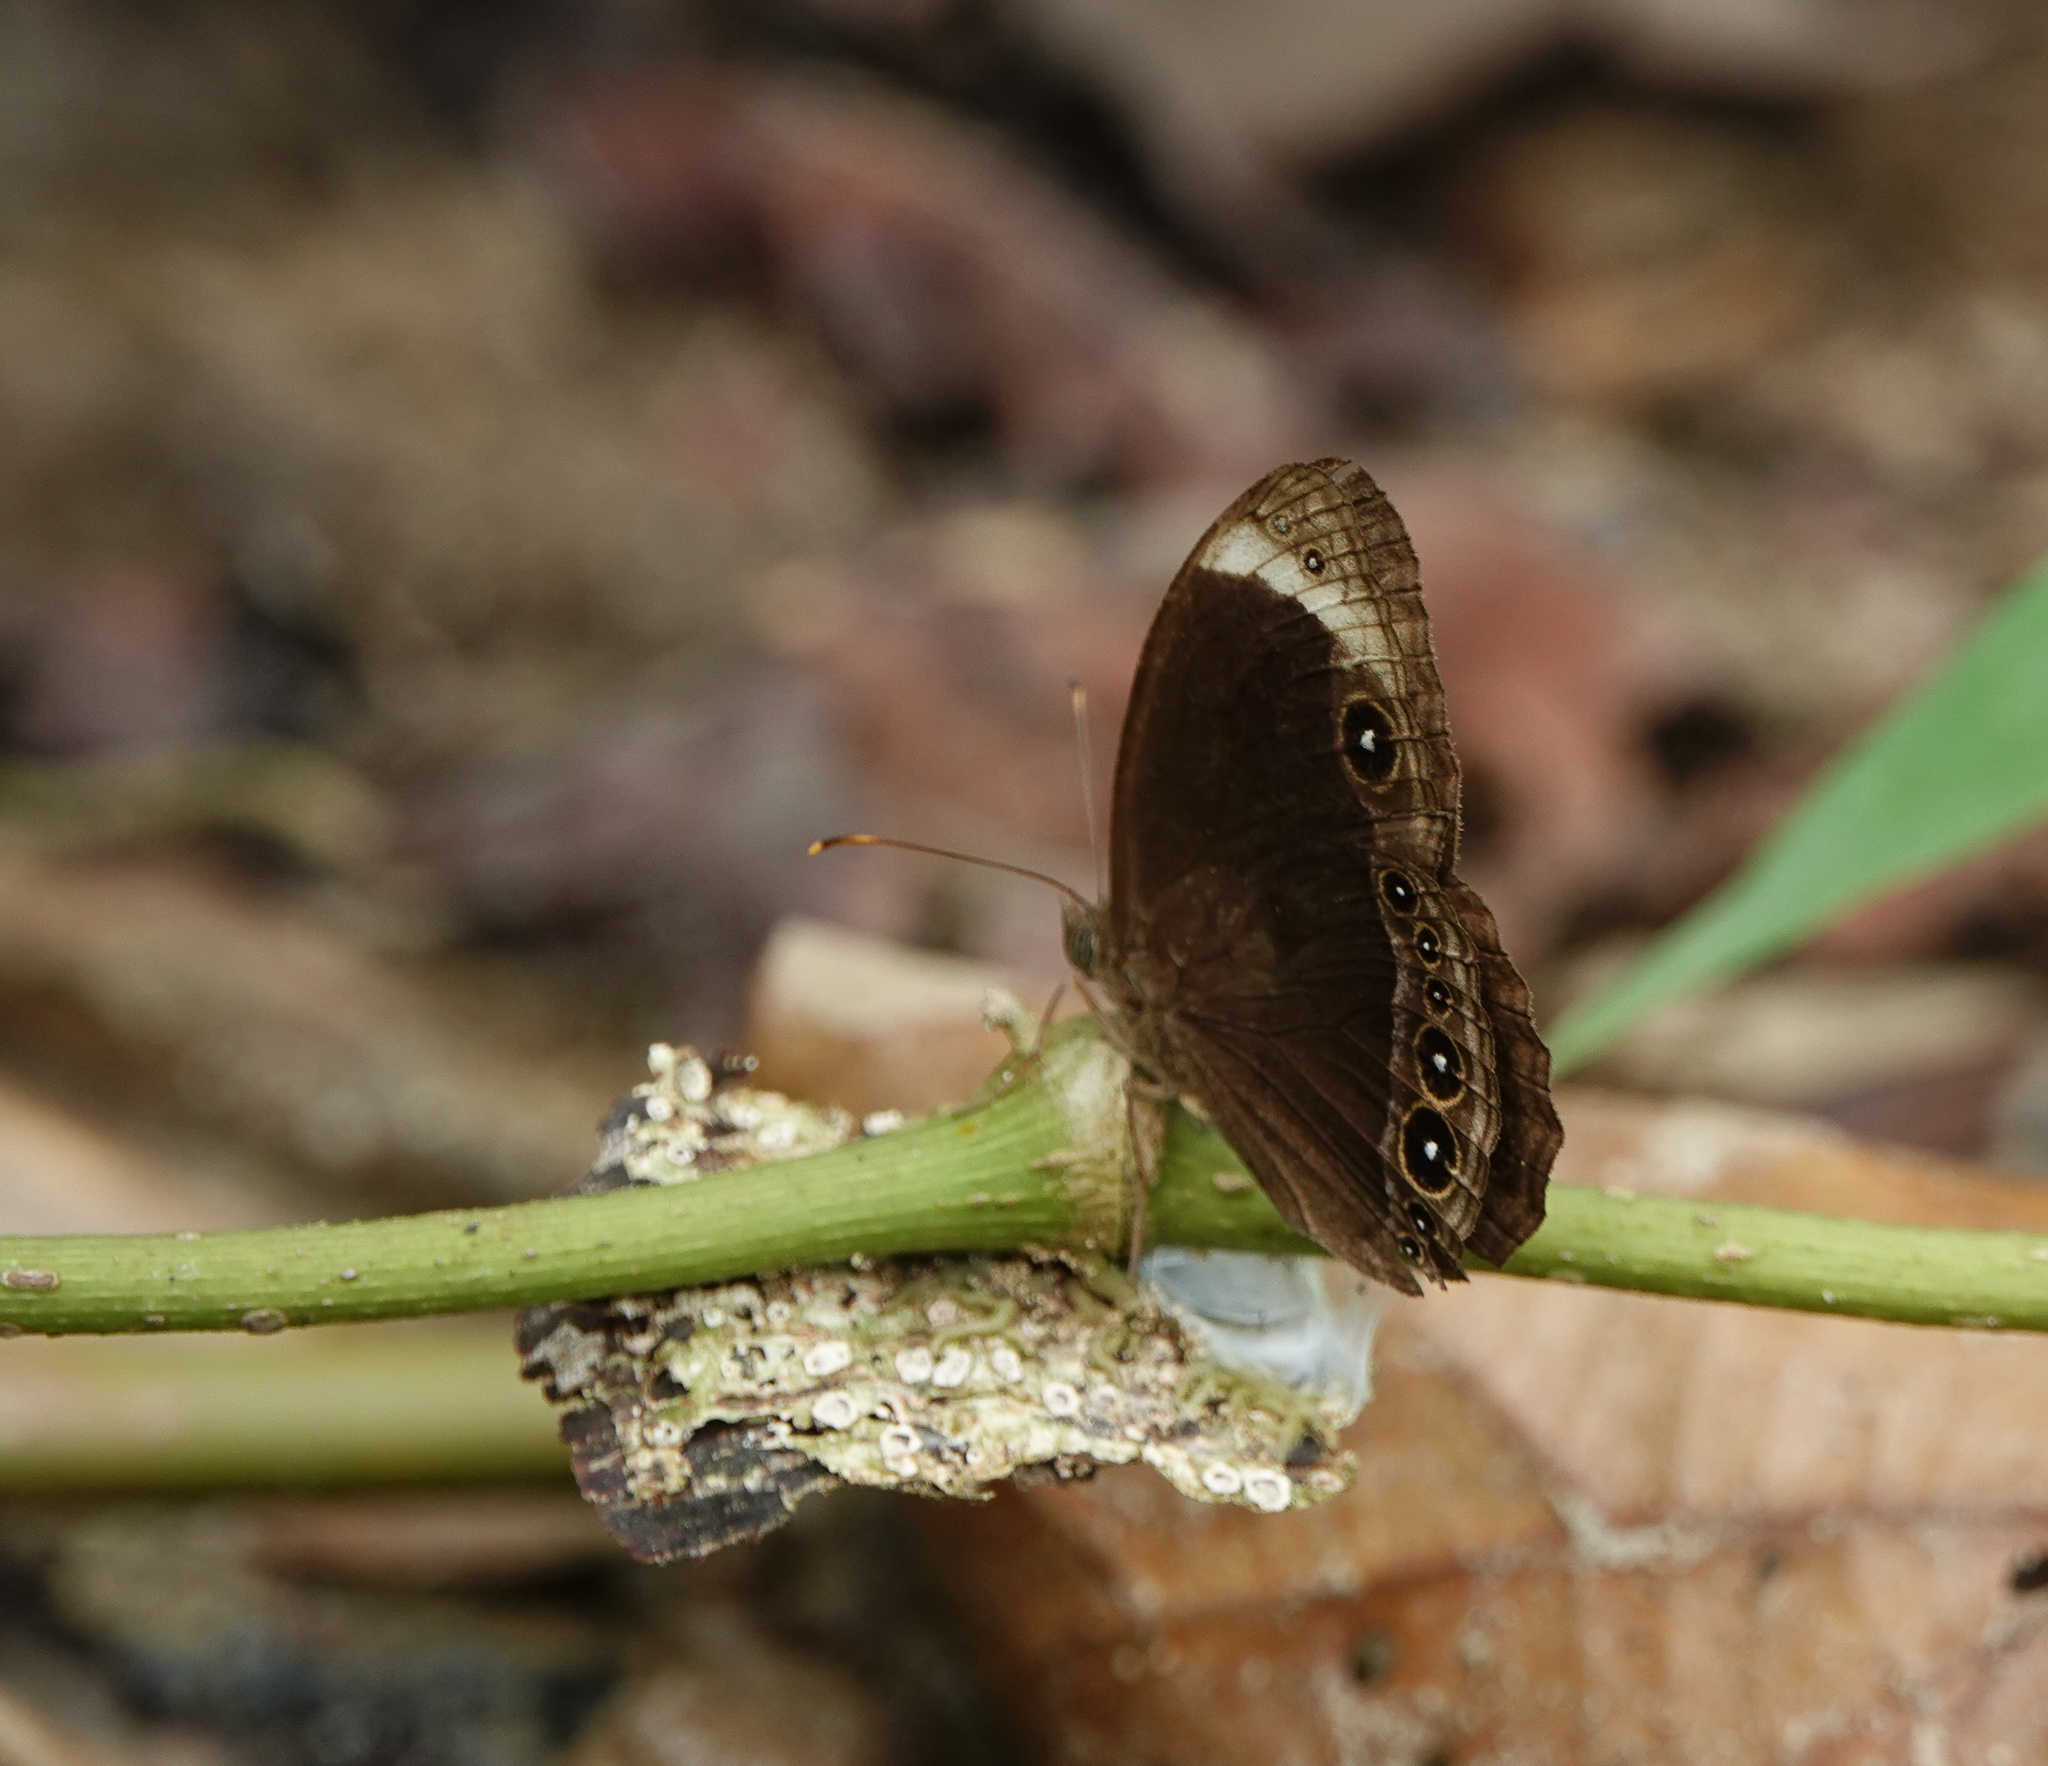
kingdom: Animalia
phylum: Arthropoda
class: Insecta
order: Lepidoptera
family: Nymphalidae
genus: Mycalesis
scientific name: Mycalesis anaxias
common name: White-bar bushbrown
